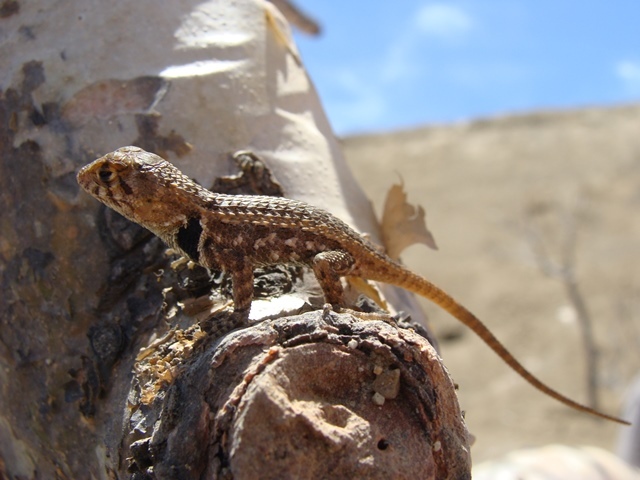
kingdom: Animalia
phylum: Chordata
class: Squamata
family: Phrynosomatidae
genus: Sceloporus
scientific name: Sceloporus zosteromus
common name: Baja spiny lizard
